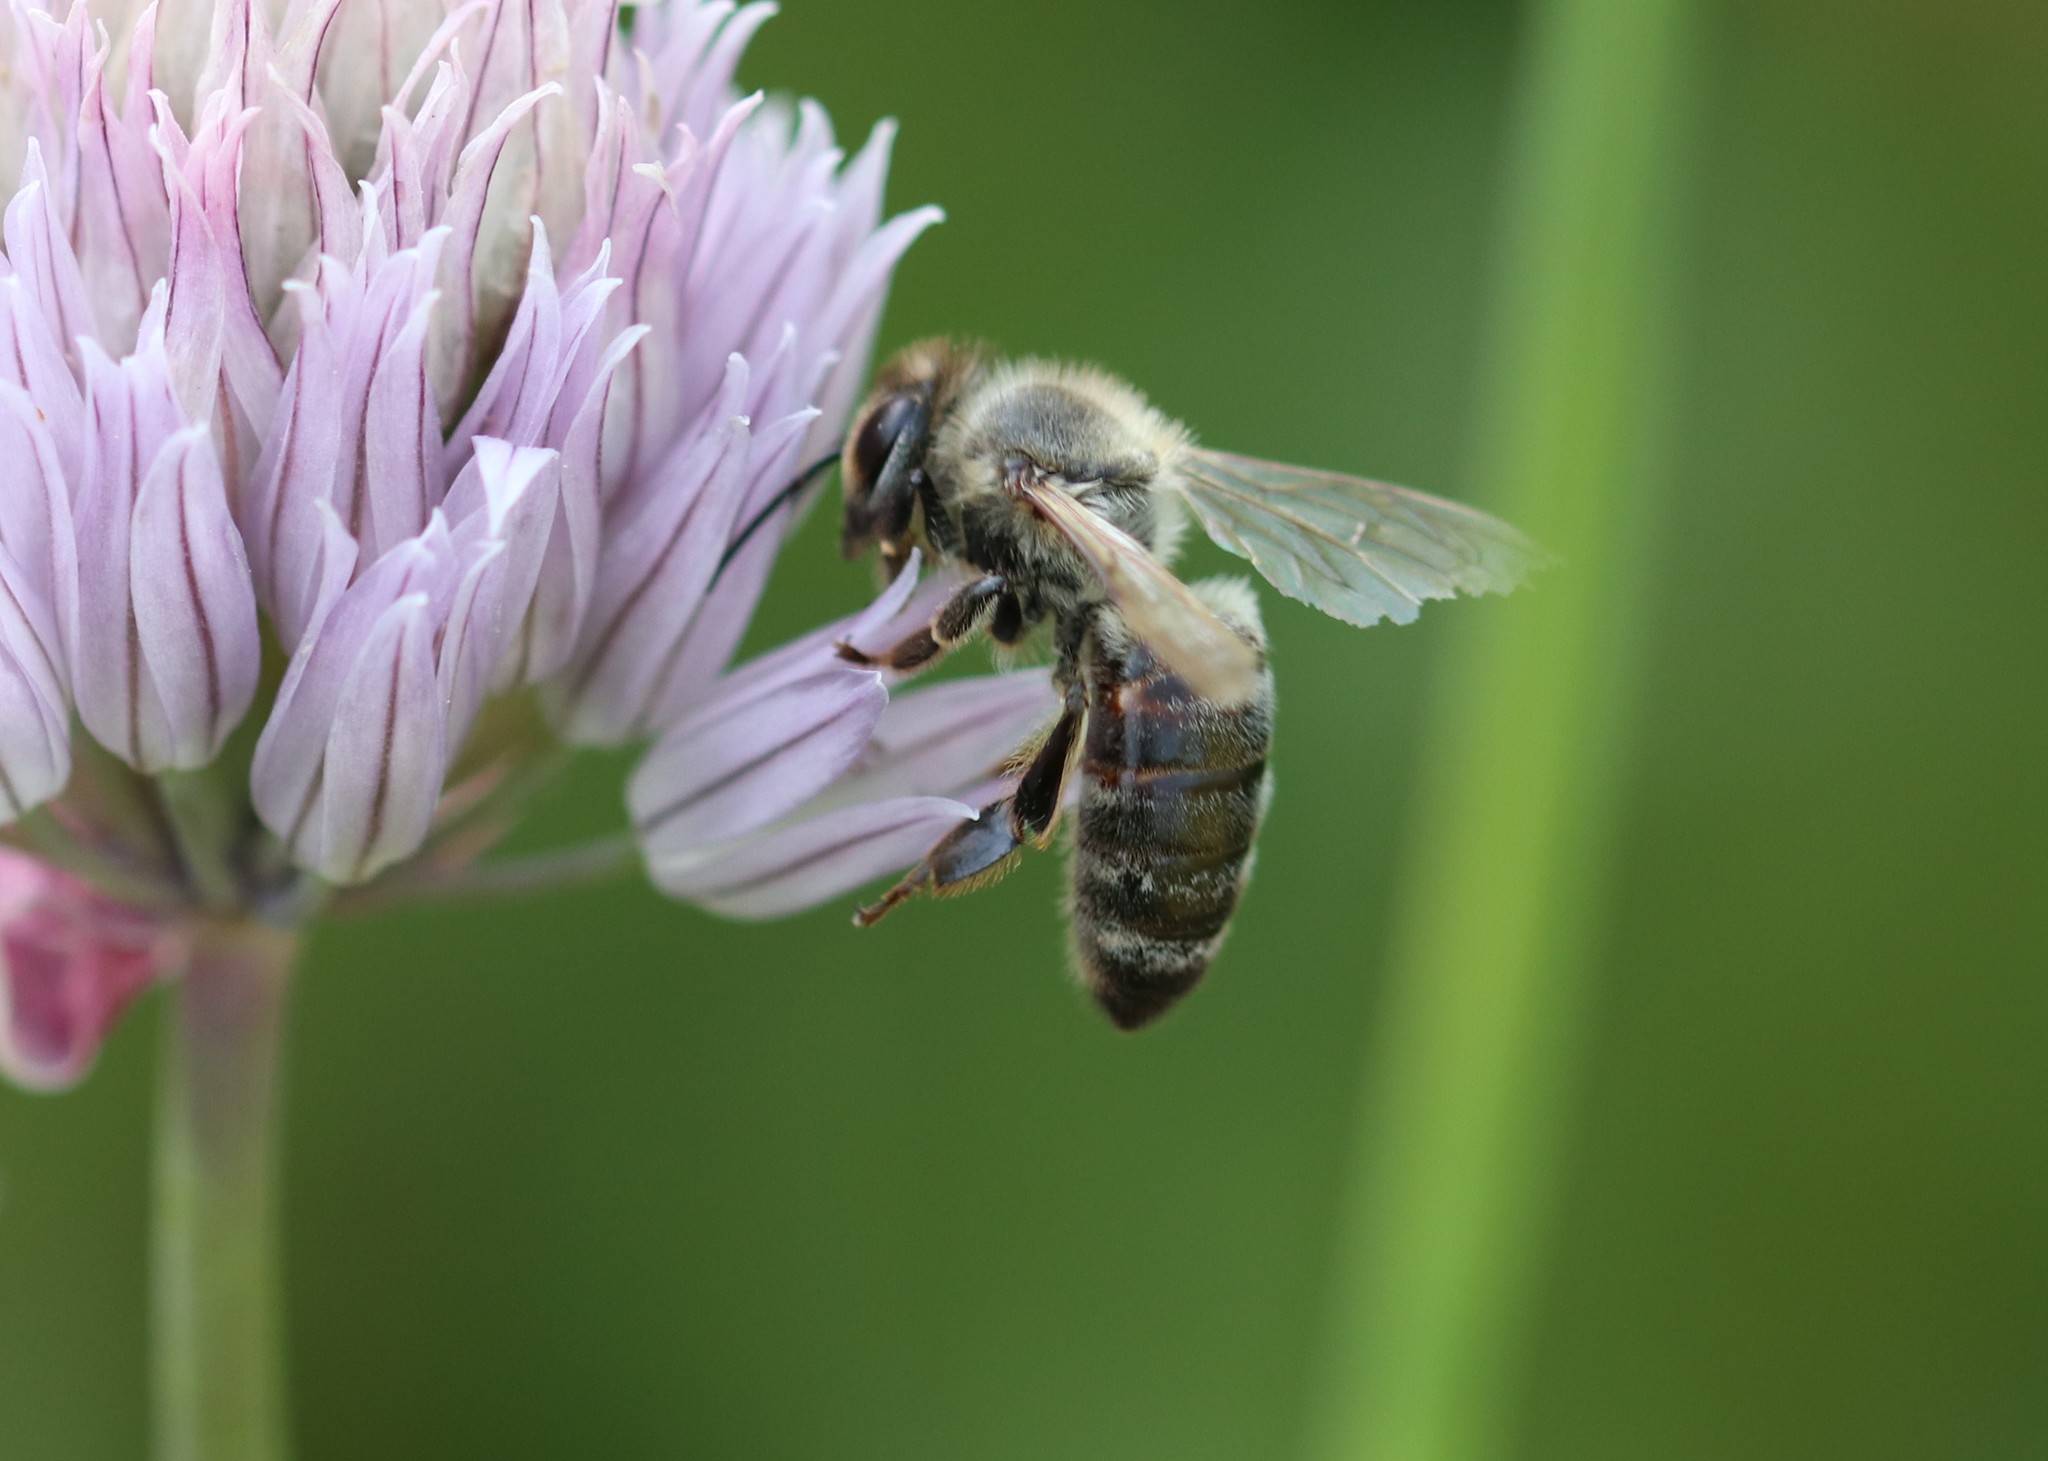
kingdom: Animalia
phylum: Arthropoda
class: Insecta
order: Hymenoptera
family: Apidae
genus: Apis
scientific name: Apis mellifera
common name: Honey bee
